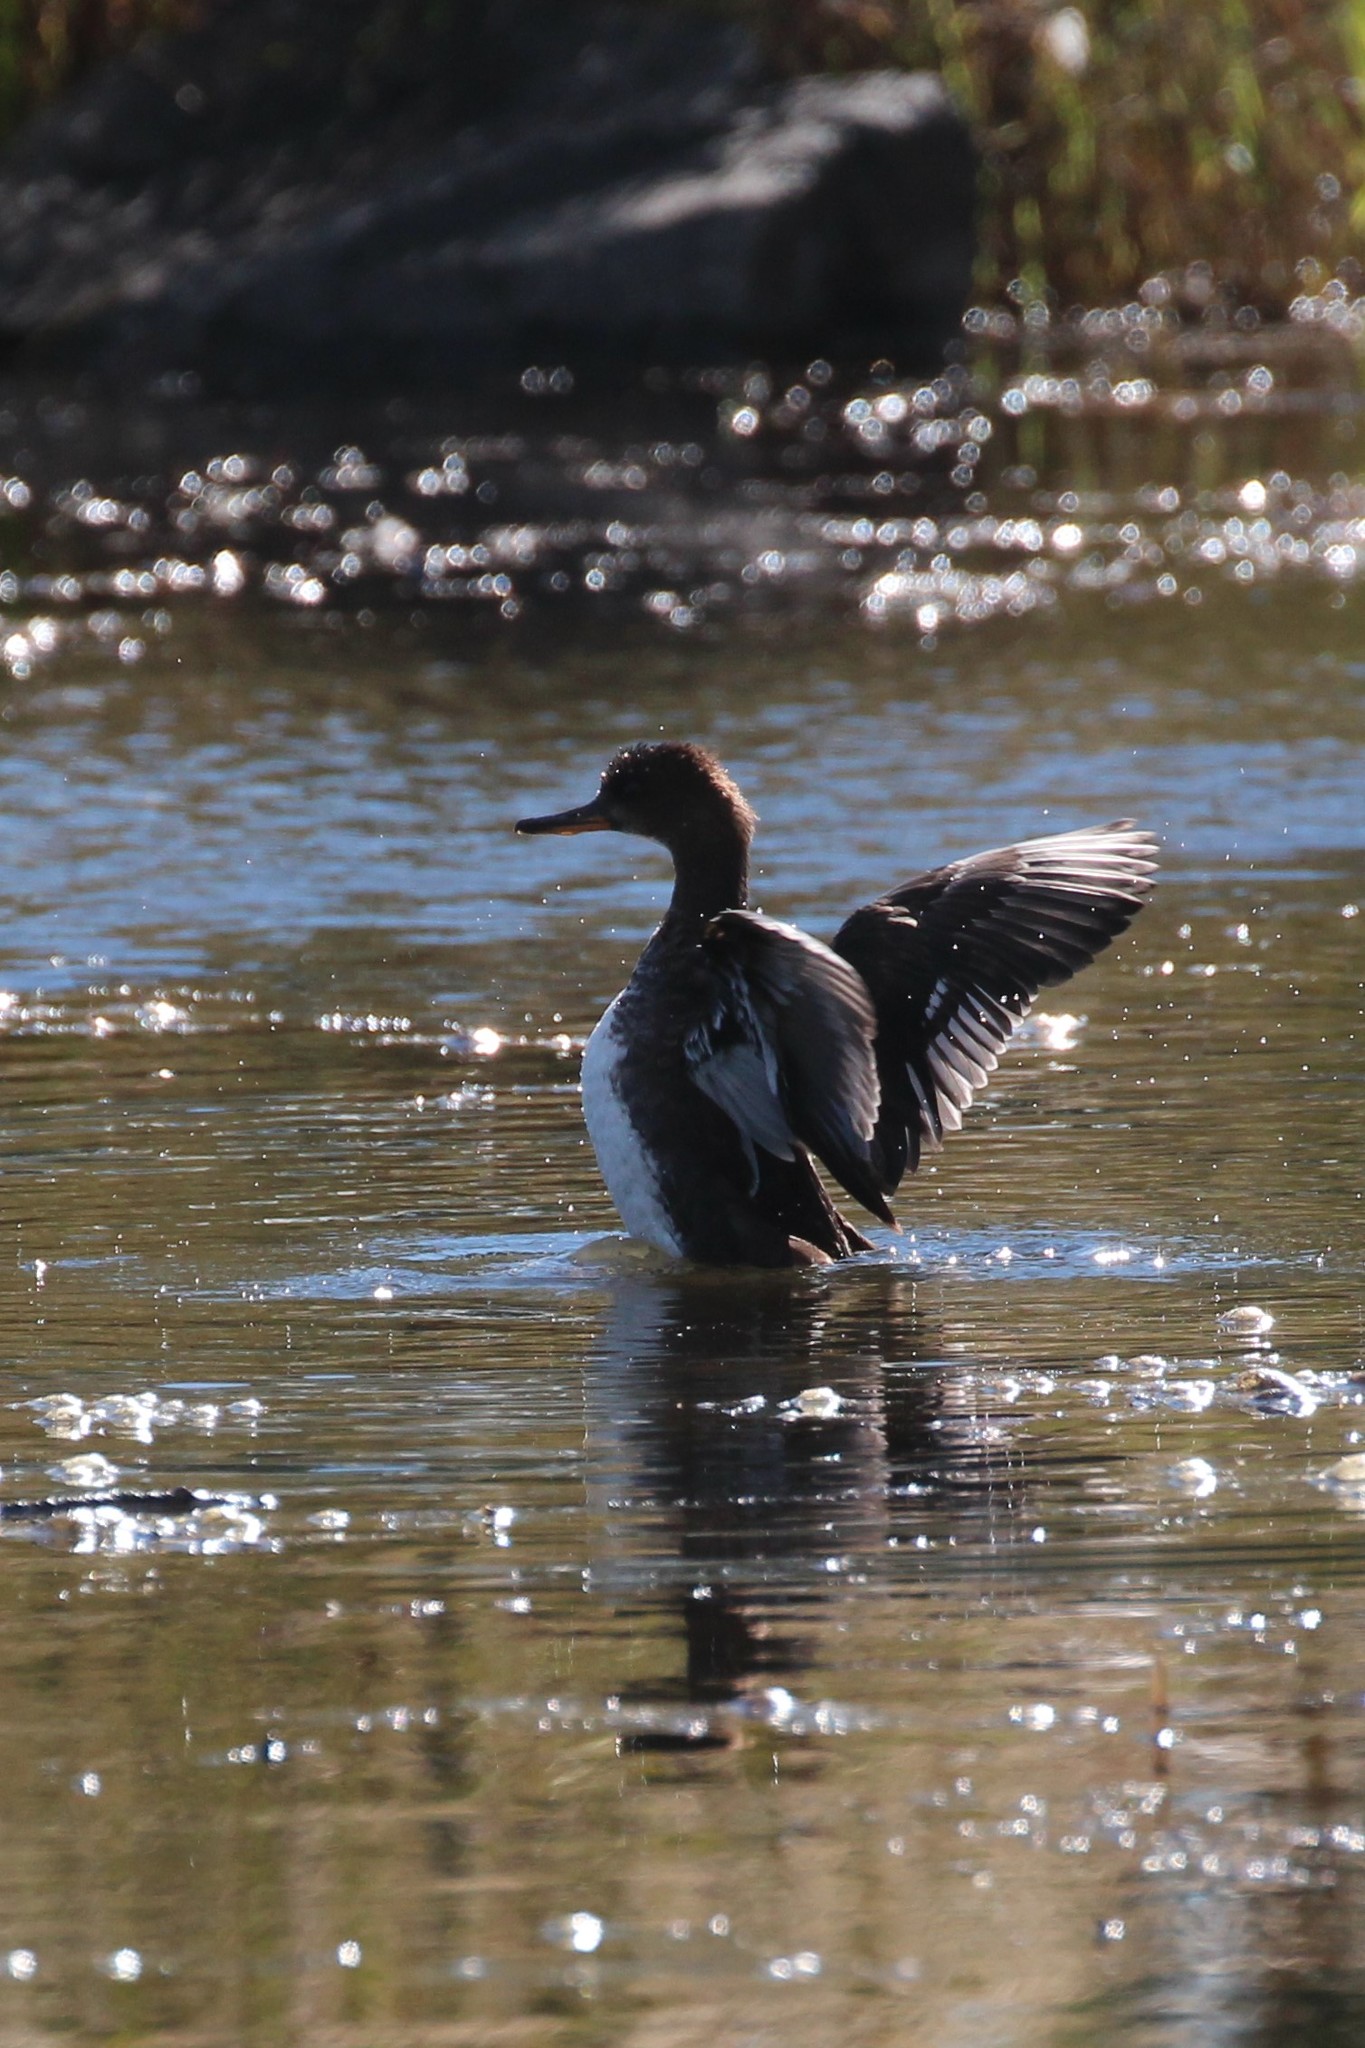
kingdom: Animalia
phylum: Chordata
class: Aves
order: Anseriformes
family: Anatidae
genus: Lophodytes
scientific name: Lophodytes cucullatus
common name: Hooded merganser
